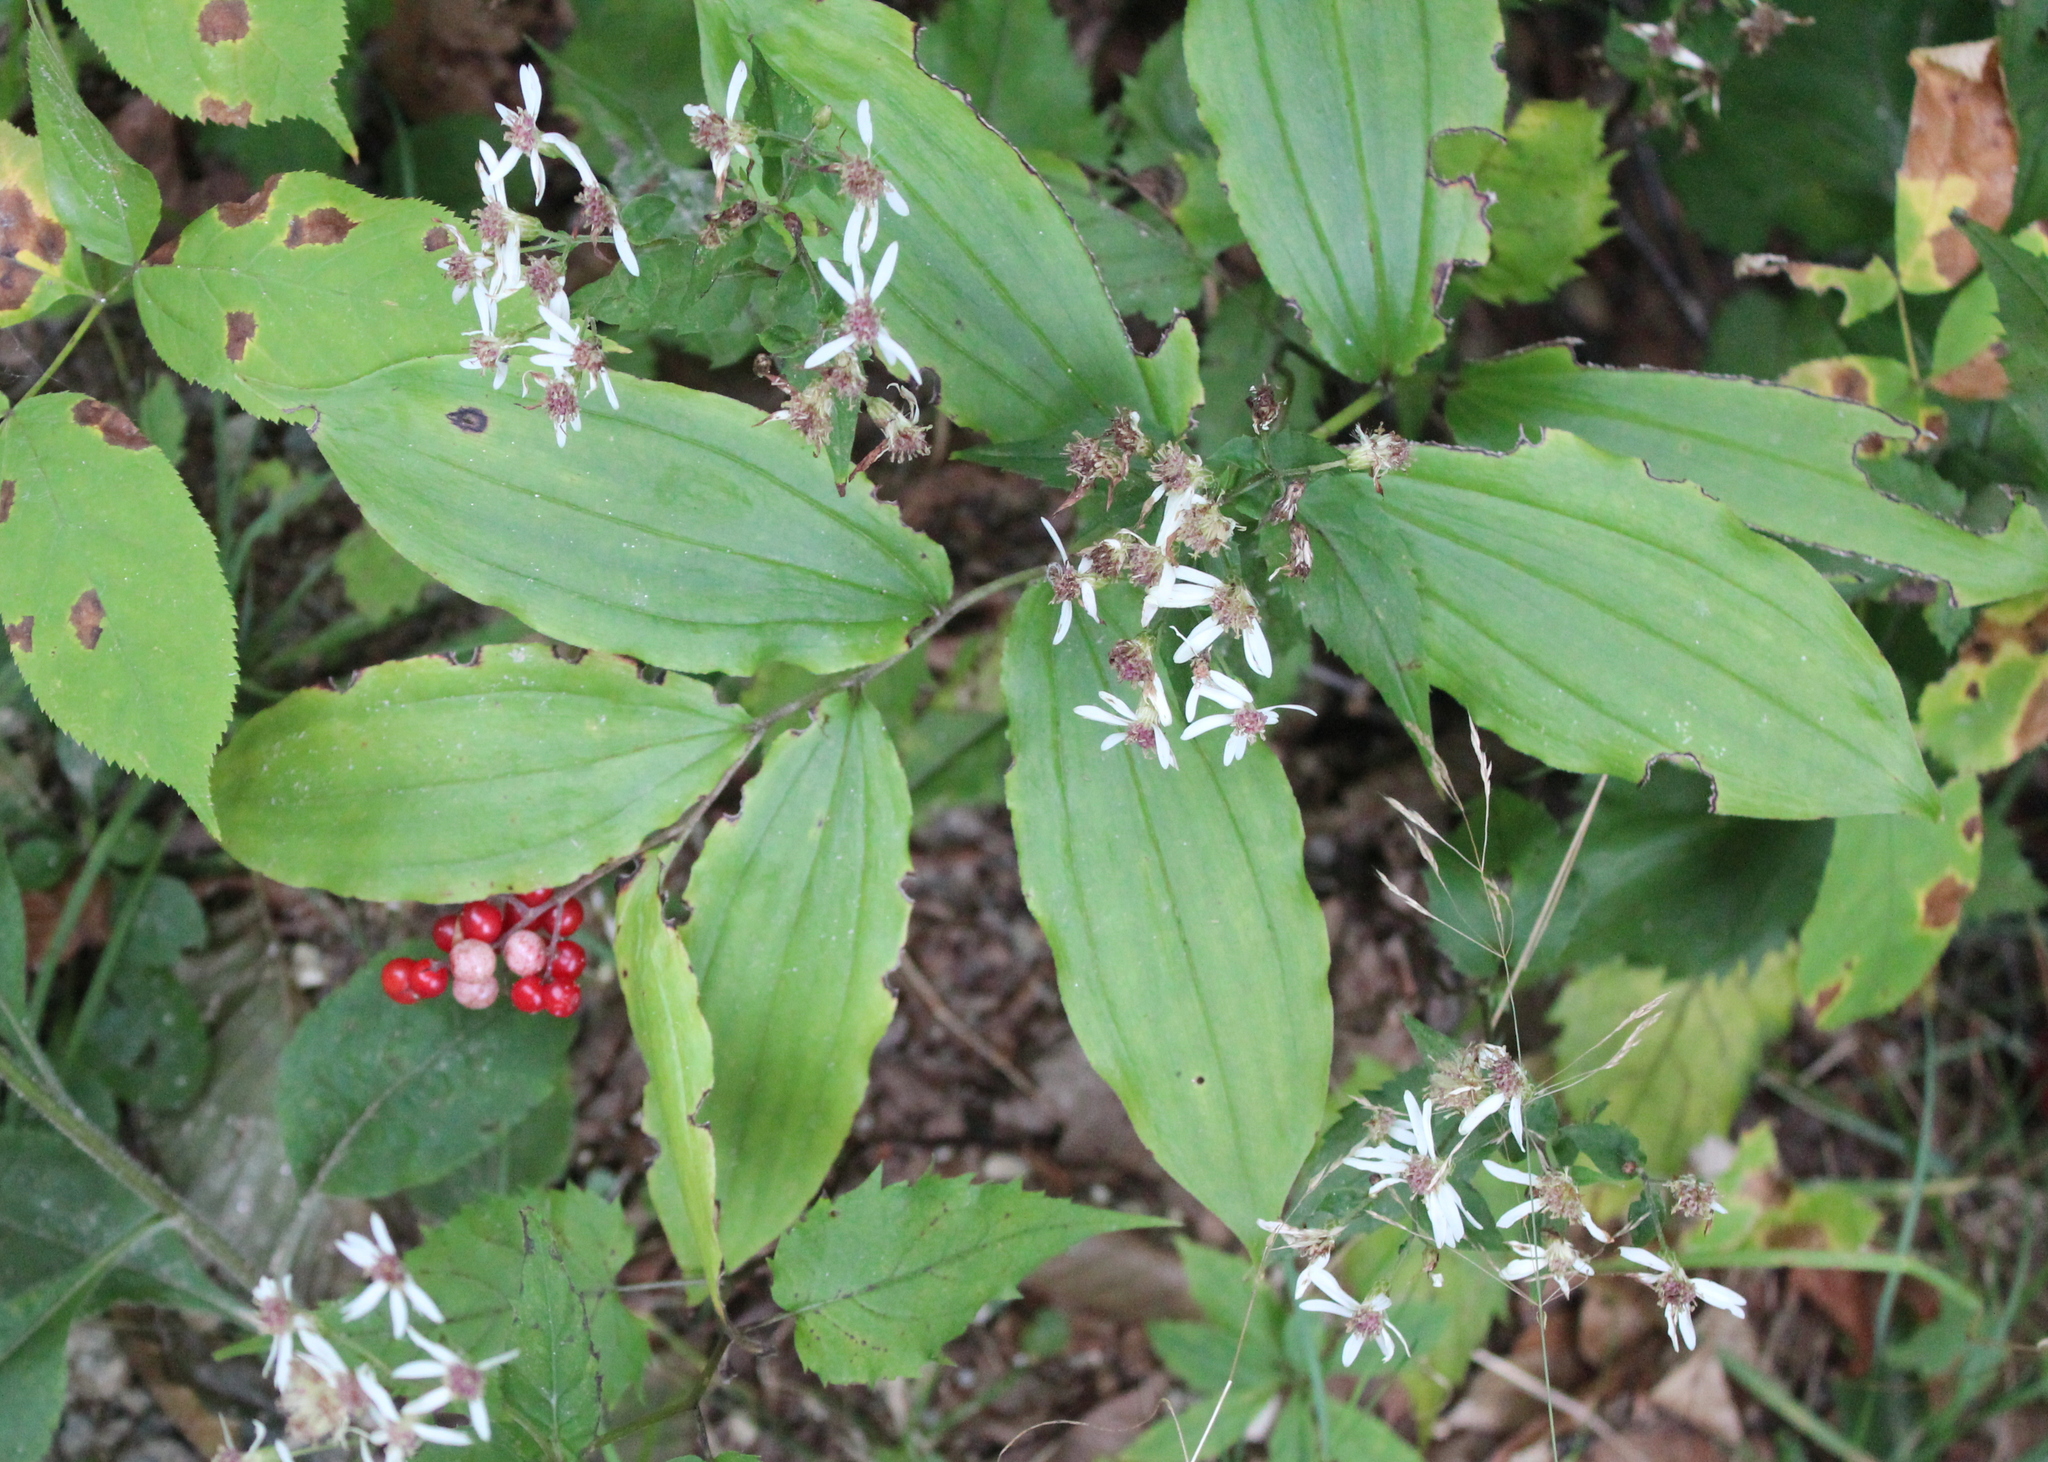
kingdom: Plantae
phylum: Tracheophyta
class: Liliopsida
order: Asparagales
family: Asparagaceae
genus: Maianthemum
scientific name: Maianthemum racemosum
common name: False spikenard
